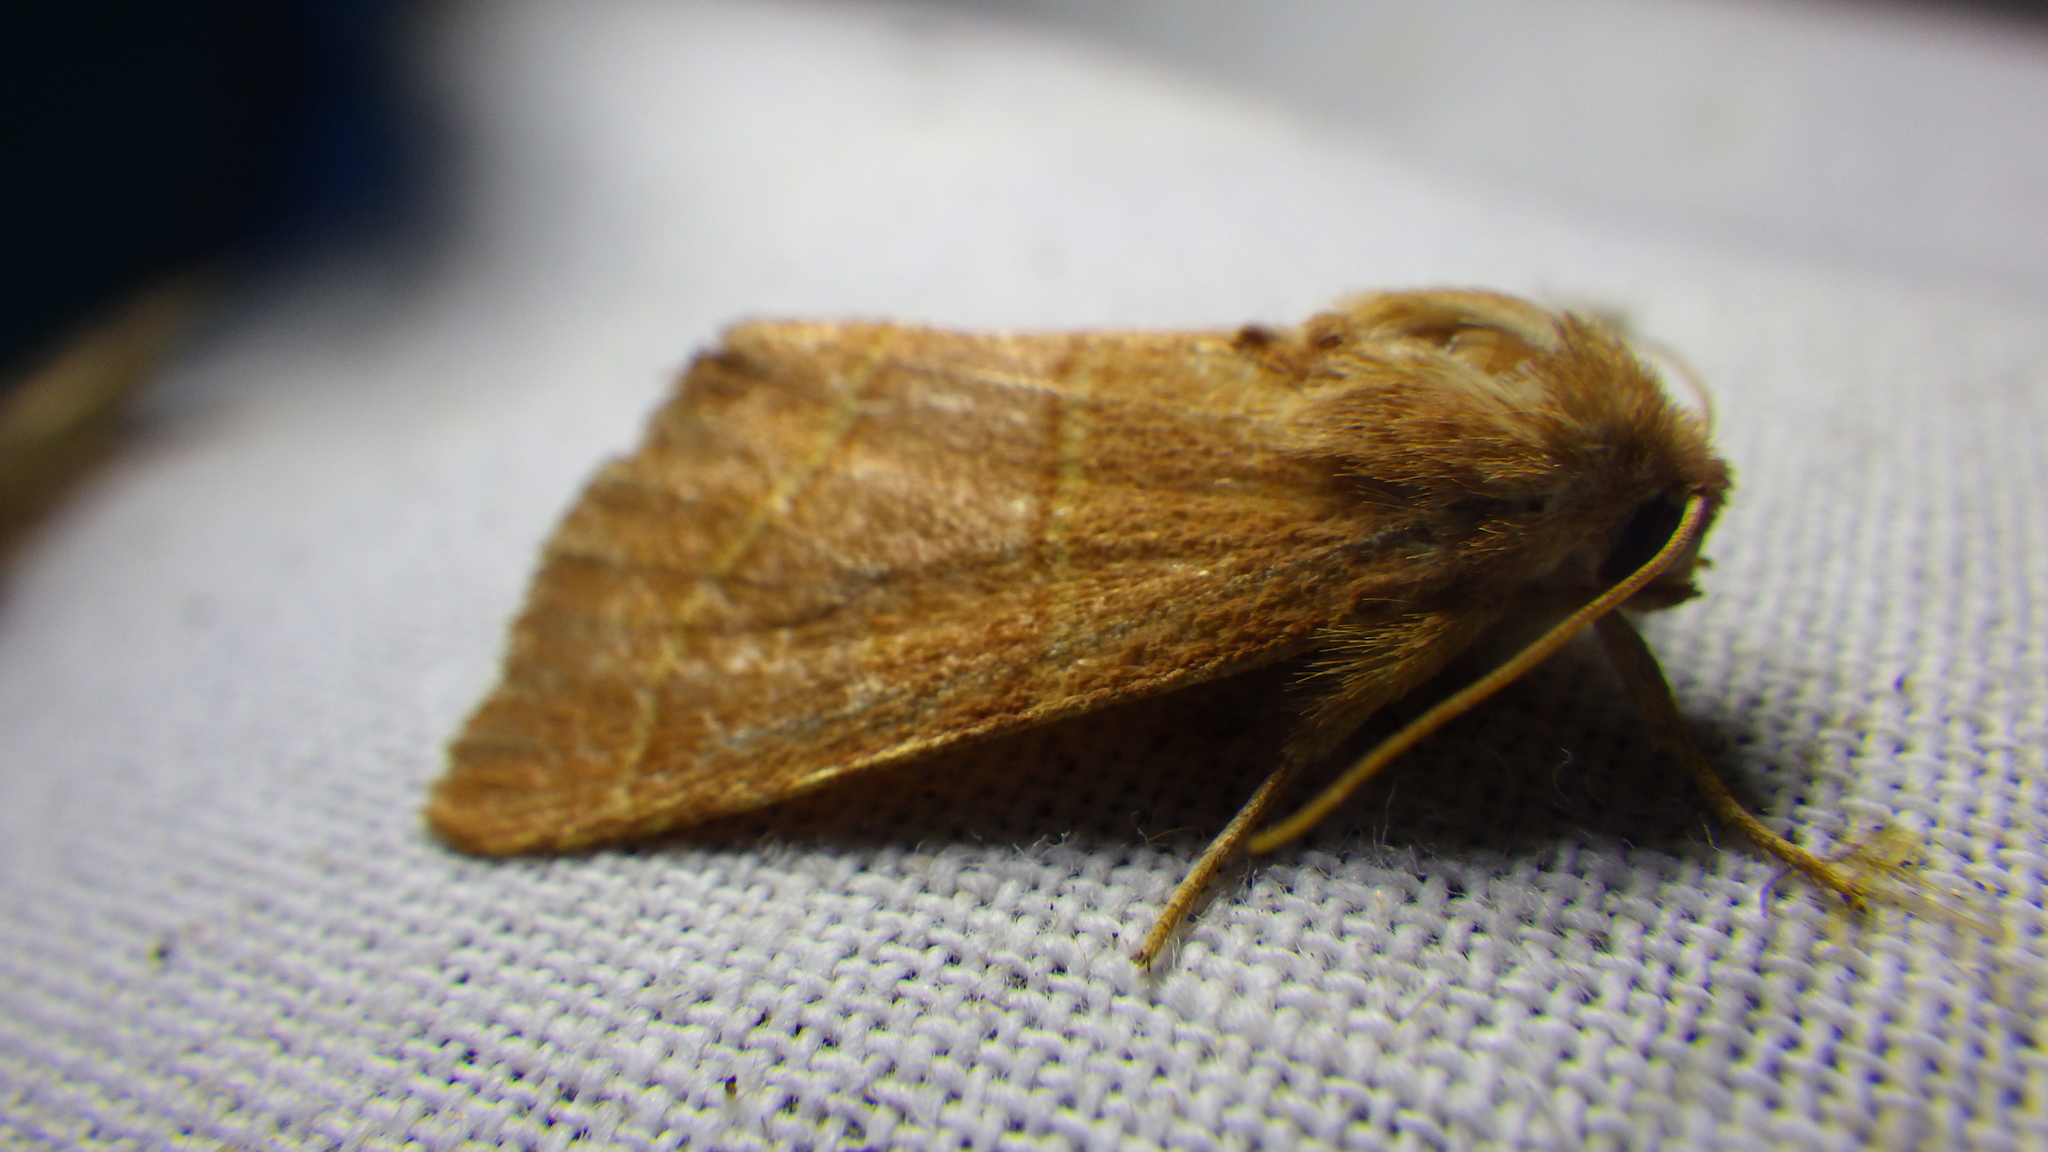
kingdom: Animalia
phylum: Arthropoda
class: Insecta
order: Lepidoptera
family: Noctuidae
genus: Atethmia
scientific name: Atethmia centrago
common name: Centre-barred sallow
